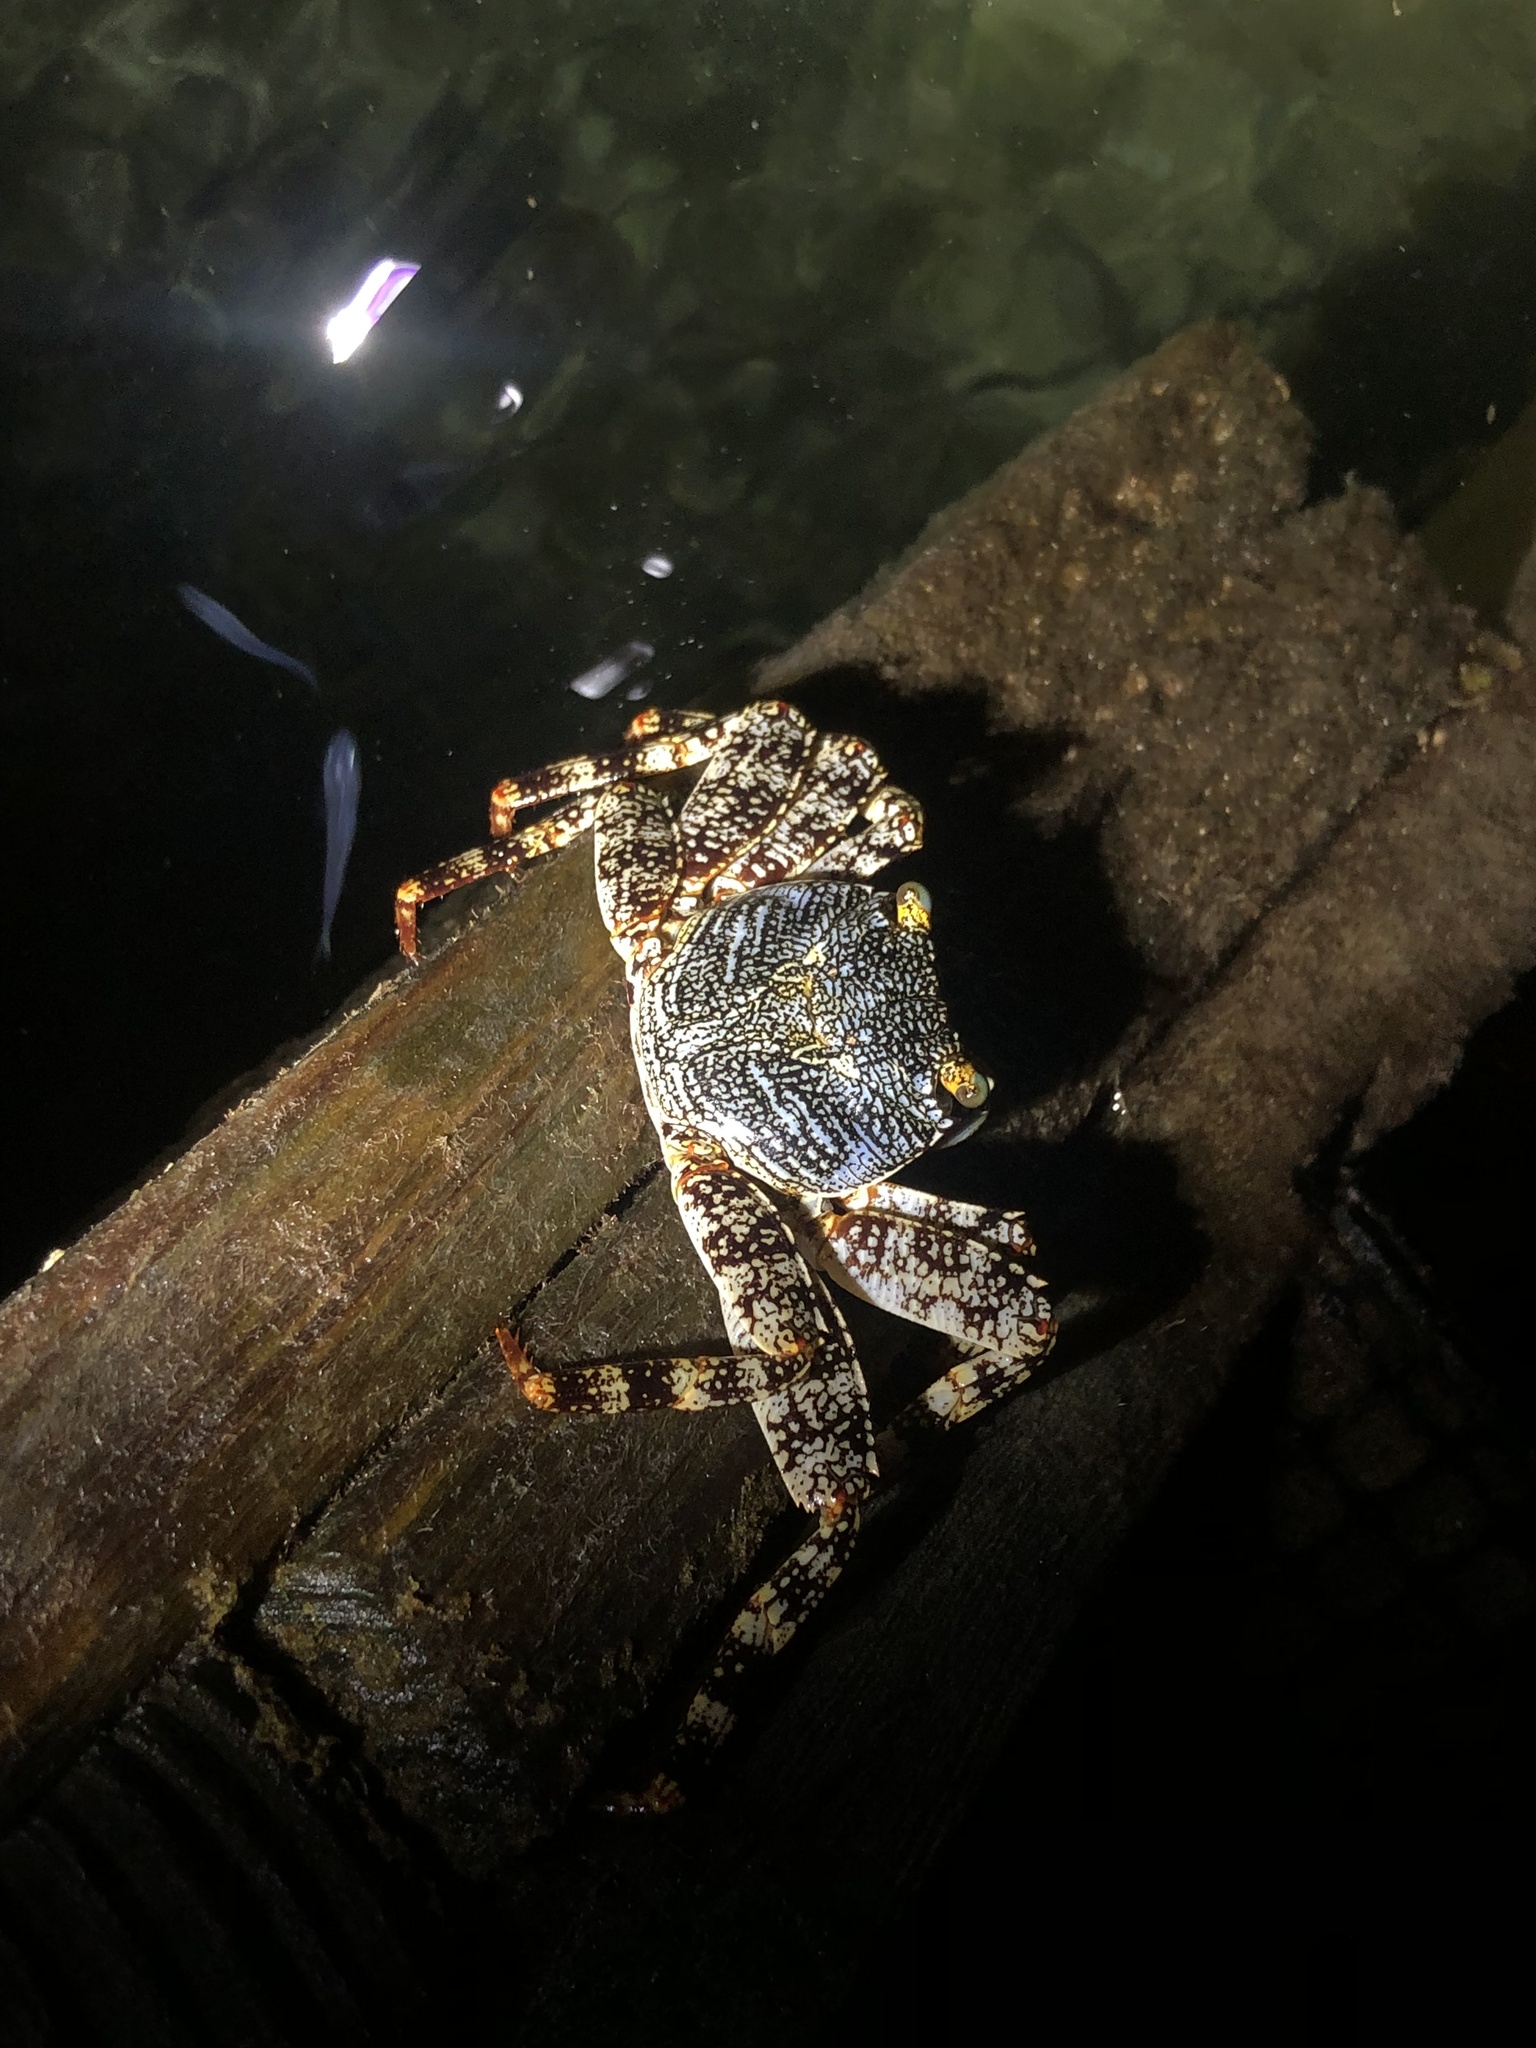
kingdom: Animalia
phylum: Arthropoda
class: Malacostraca
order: Decapoda
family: Grapsidae
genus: Grapsus
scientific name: Grapsus grapsus
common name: Sally lightfoot
